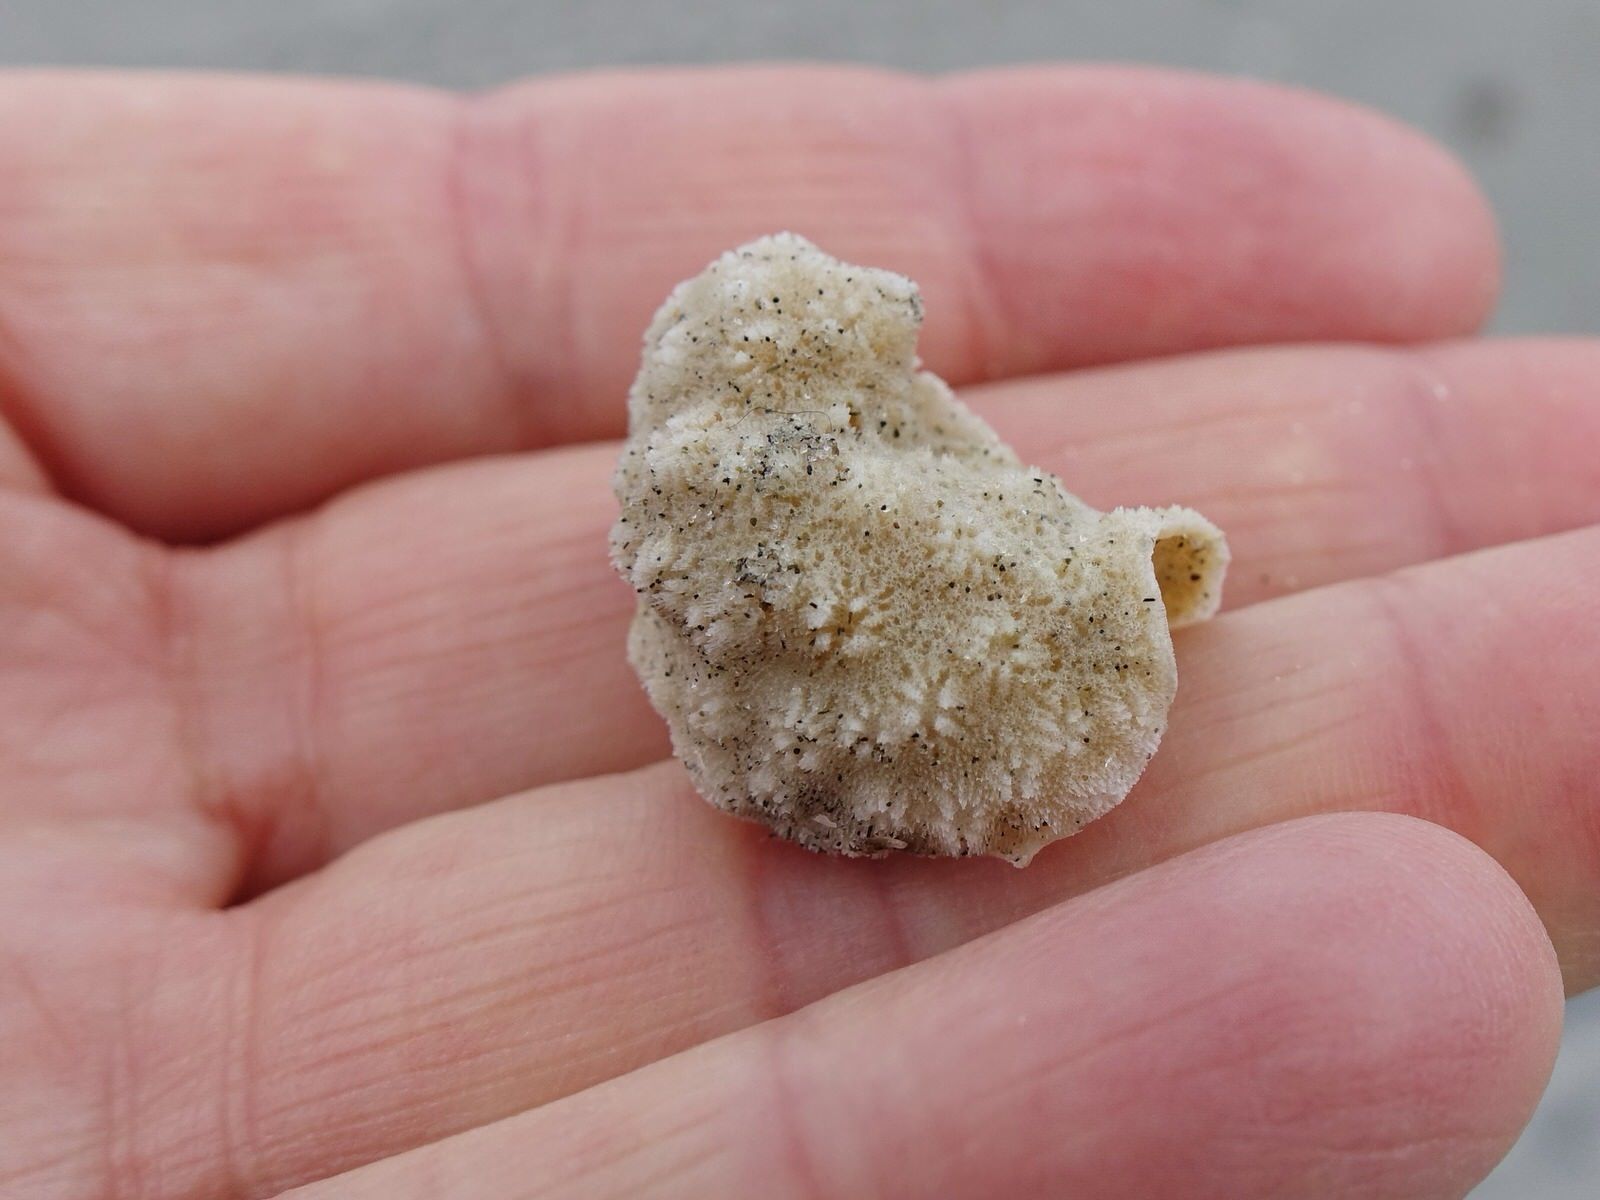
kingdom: Animalia
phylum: Bryozoa
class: Stenolaemata
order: Cyclostomatida
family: Lichenoporidae
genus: Disporella
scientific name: Disporella pristis
